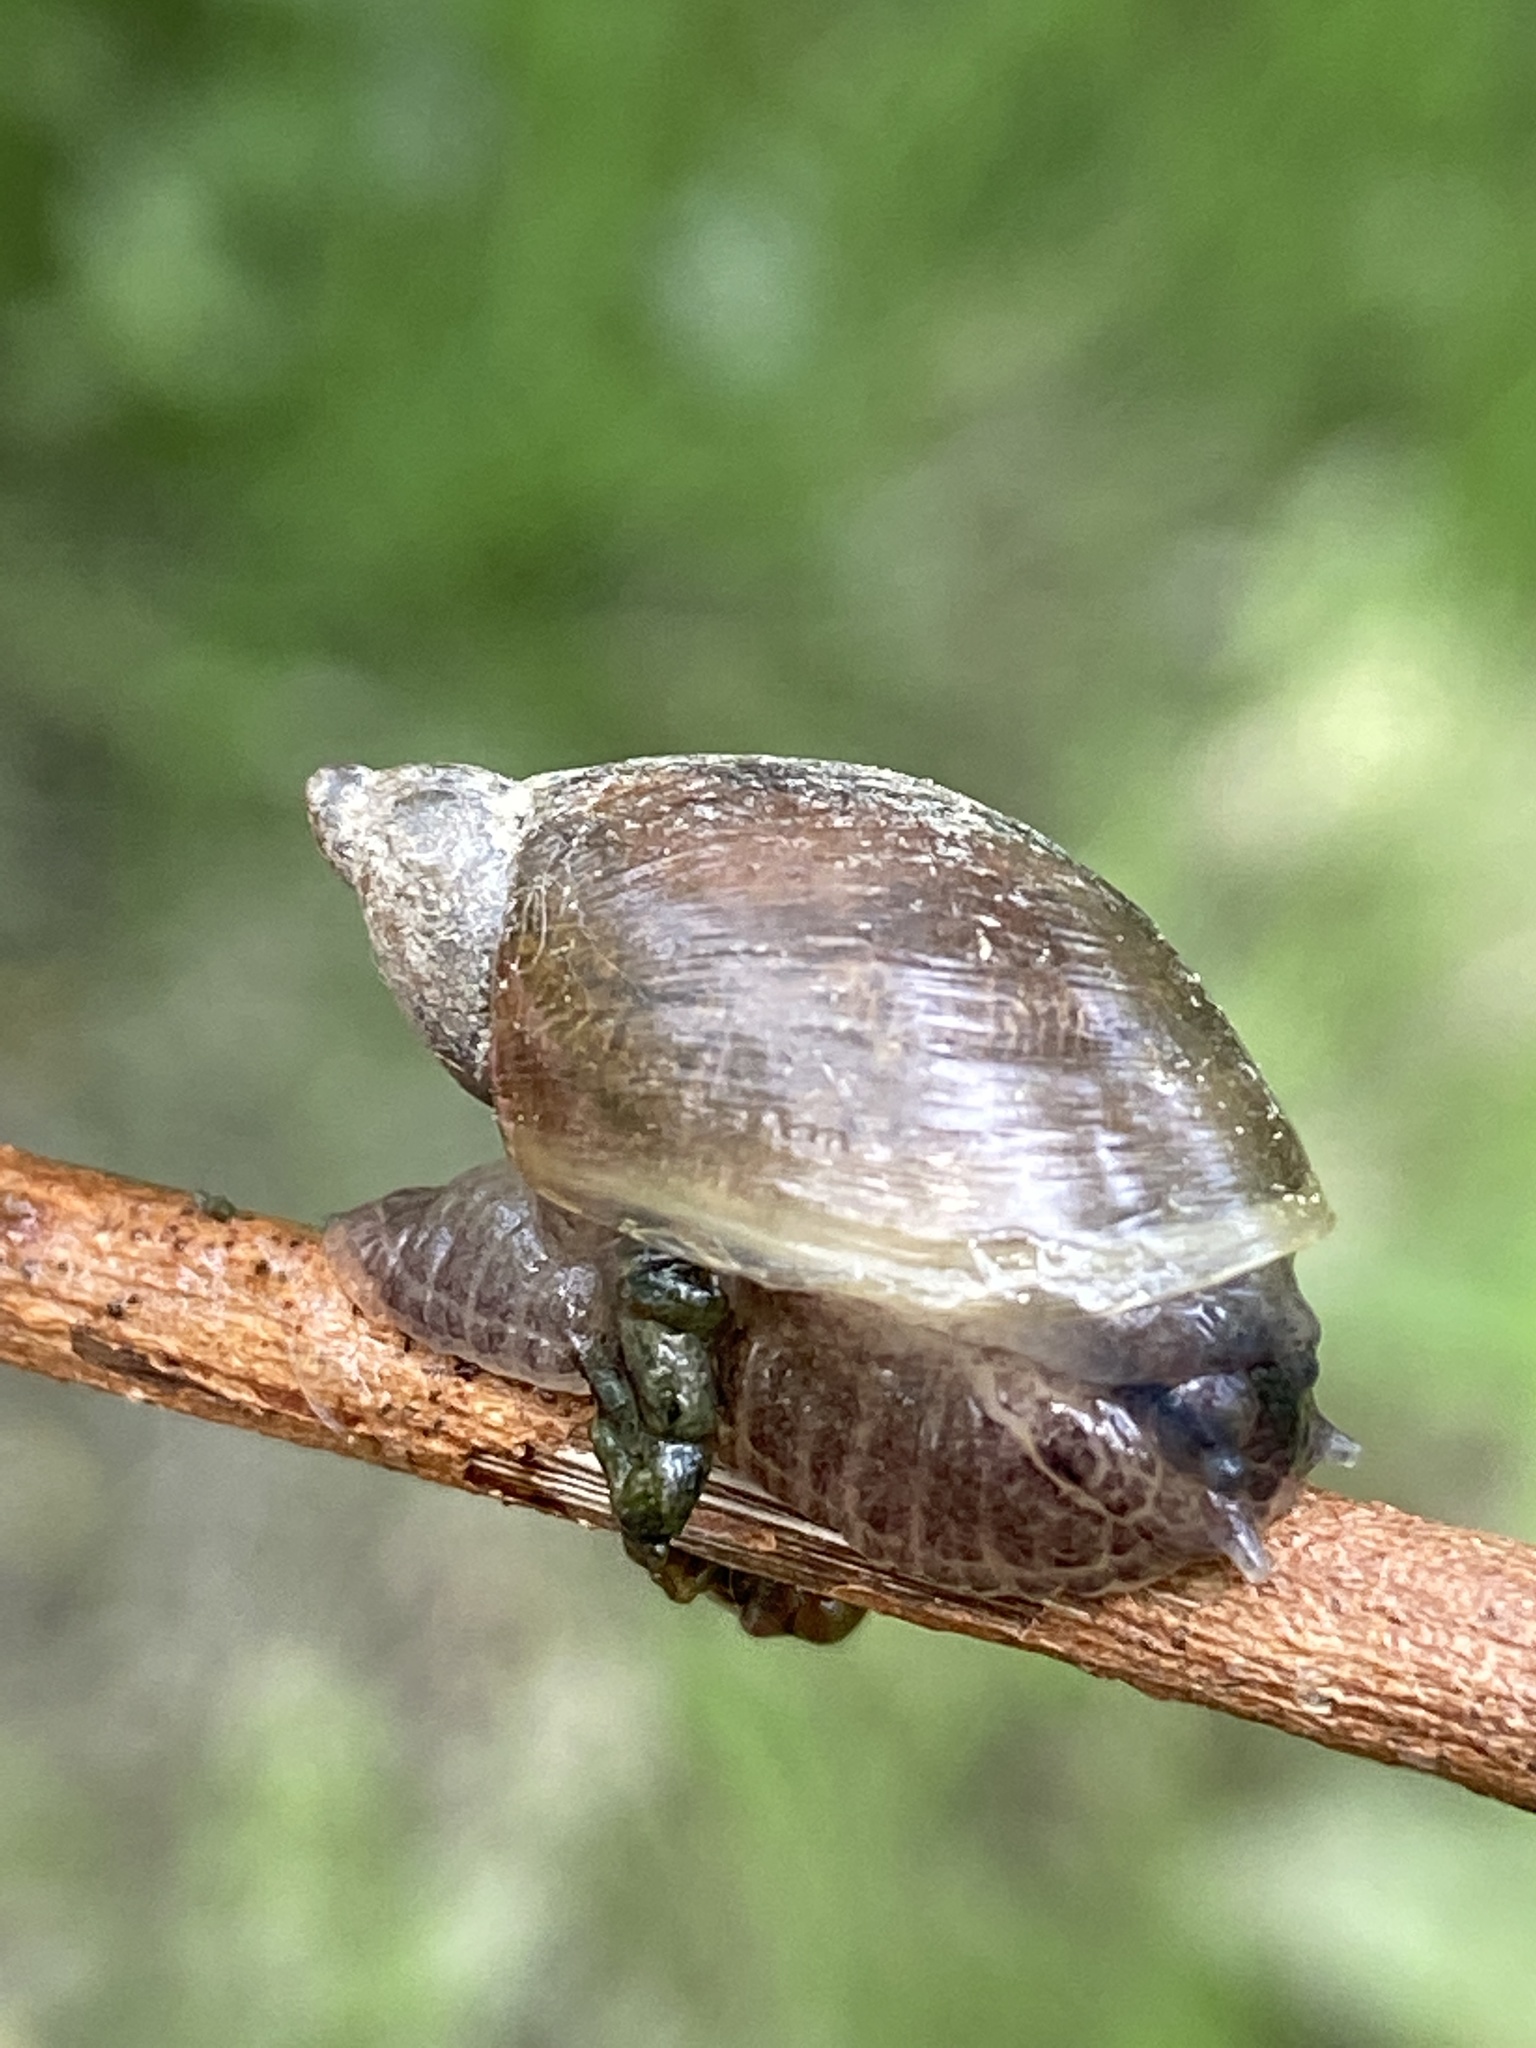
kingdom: Animalia
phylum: Mollusca
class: Gastropoda
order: Stylommatophora
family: Succineidae
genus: Succinea
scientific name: Succinea putris
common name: European ambersnail
